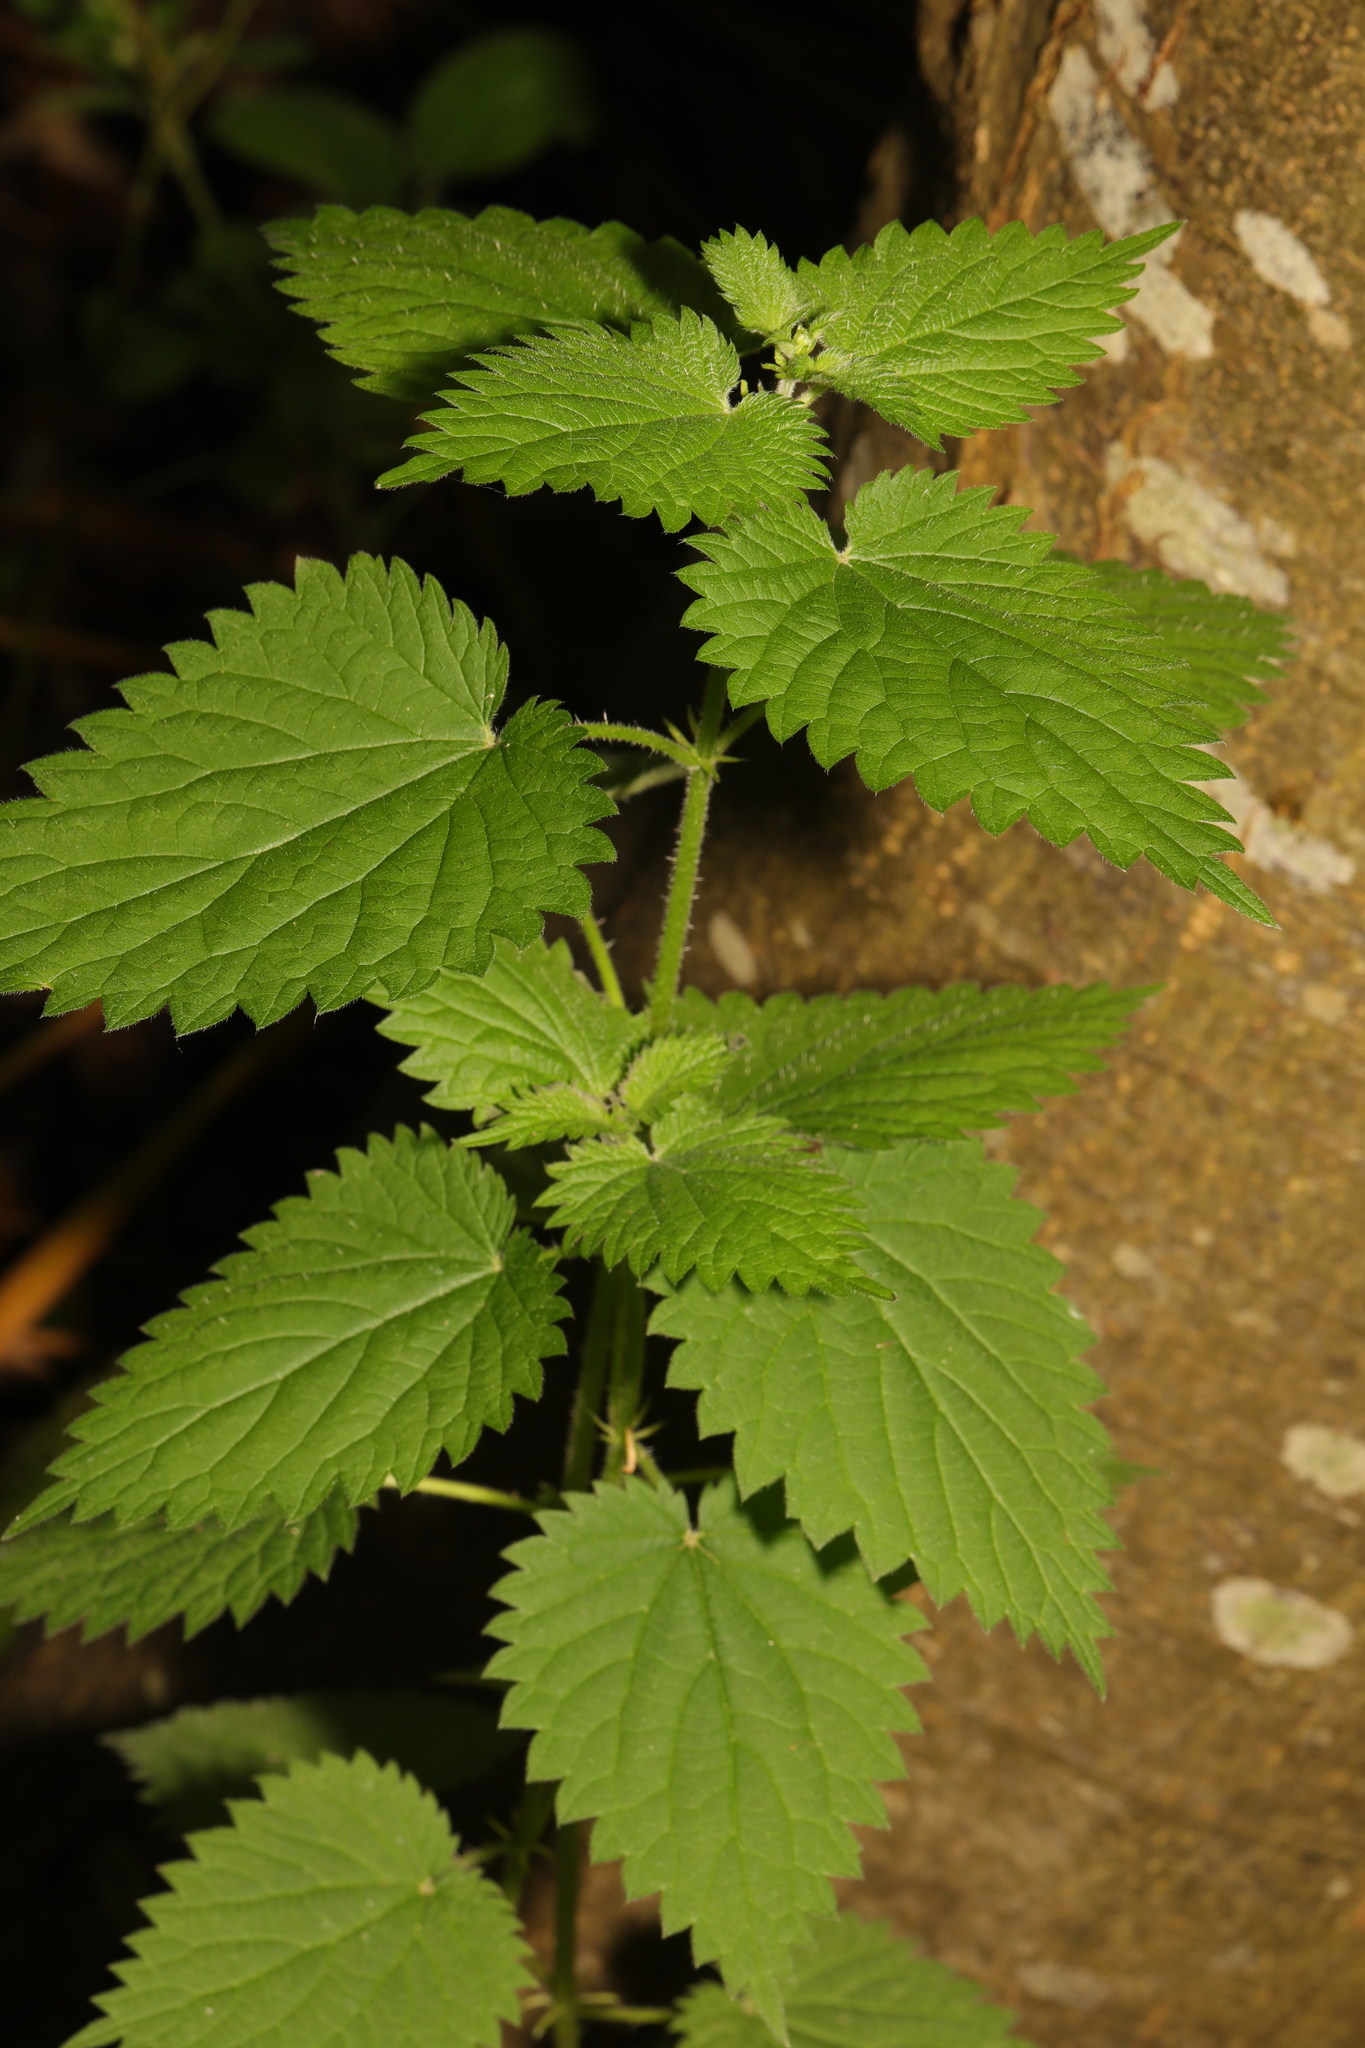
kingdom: Plantae
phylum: Tracheophyta
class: Magnoliopsida
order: Rosales
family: Urticaceae
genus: Urtica
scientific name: Urtica dioica
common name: Common nettle
